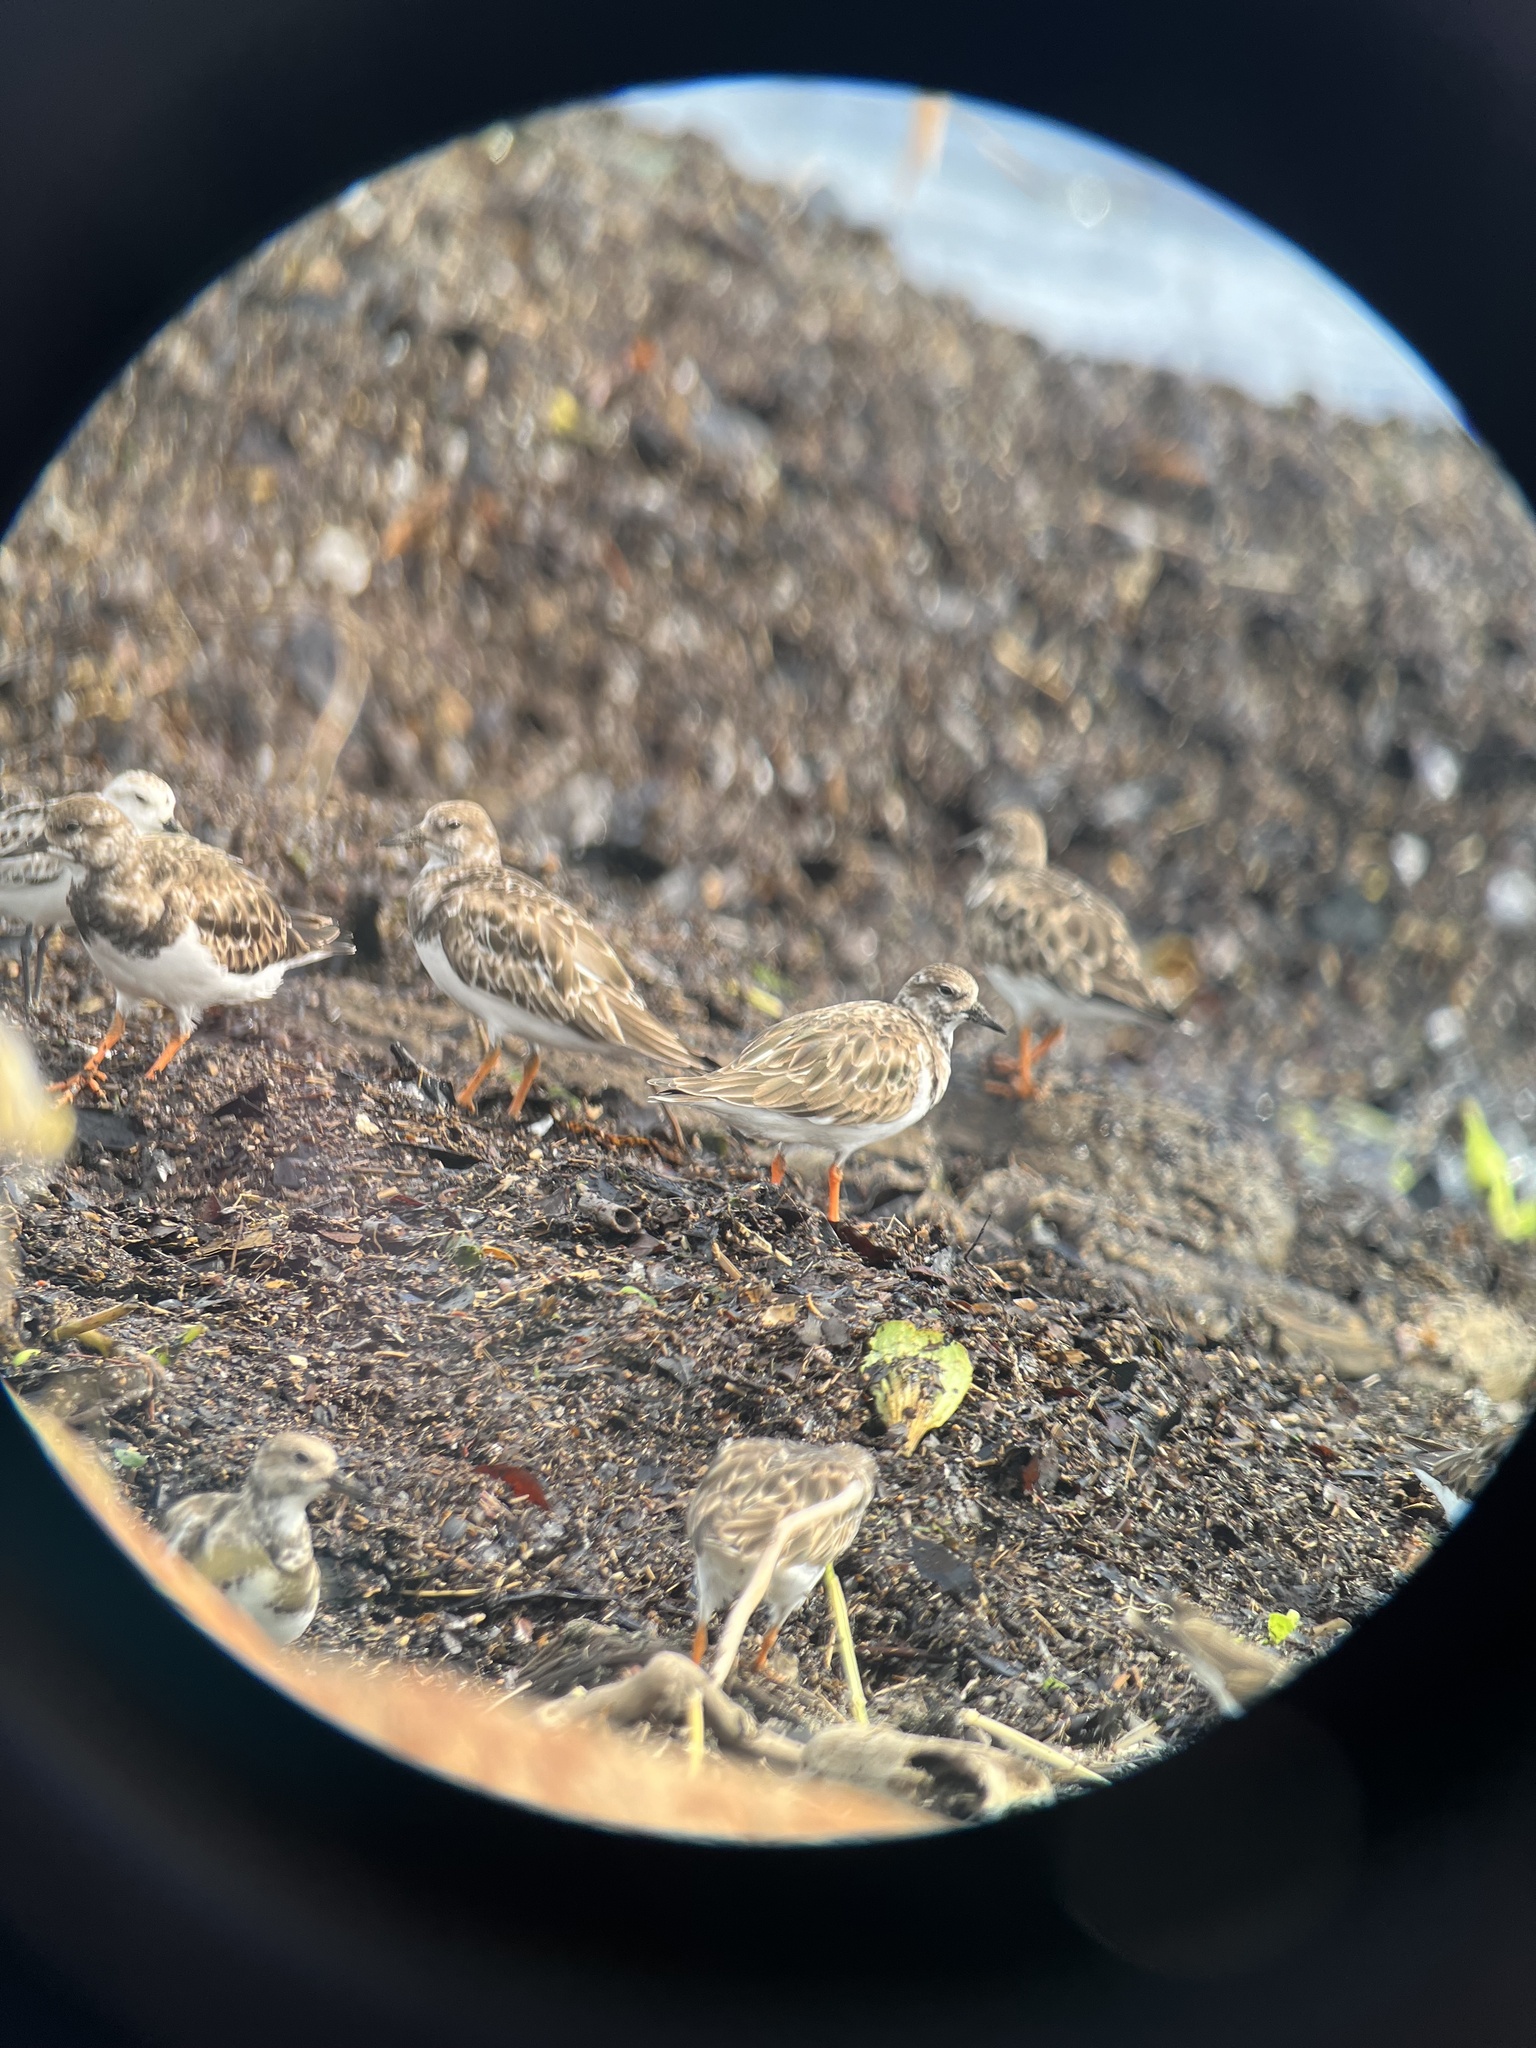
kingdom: Animalia
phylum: Chordata
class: Aves
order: Charadriiformes
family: Scolopacidae
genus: Arenaria
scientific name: Arenaria interpres
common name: Ruddy turnstone
